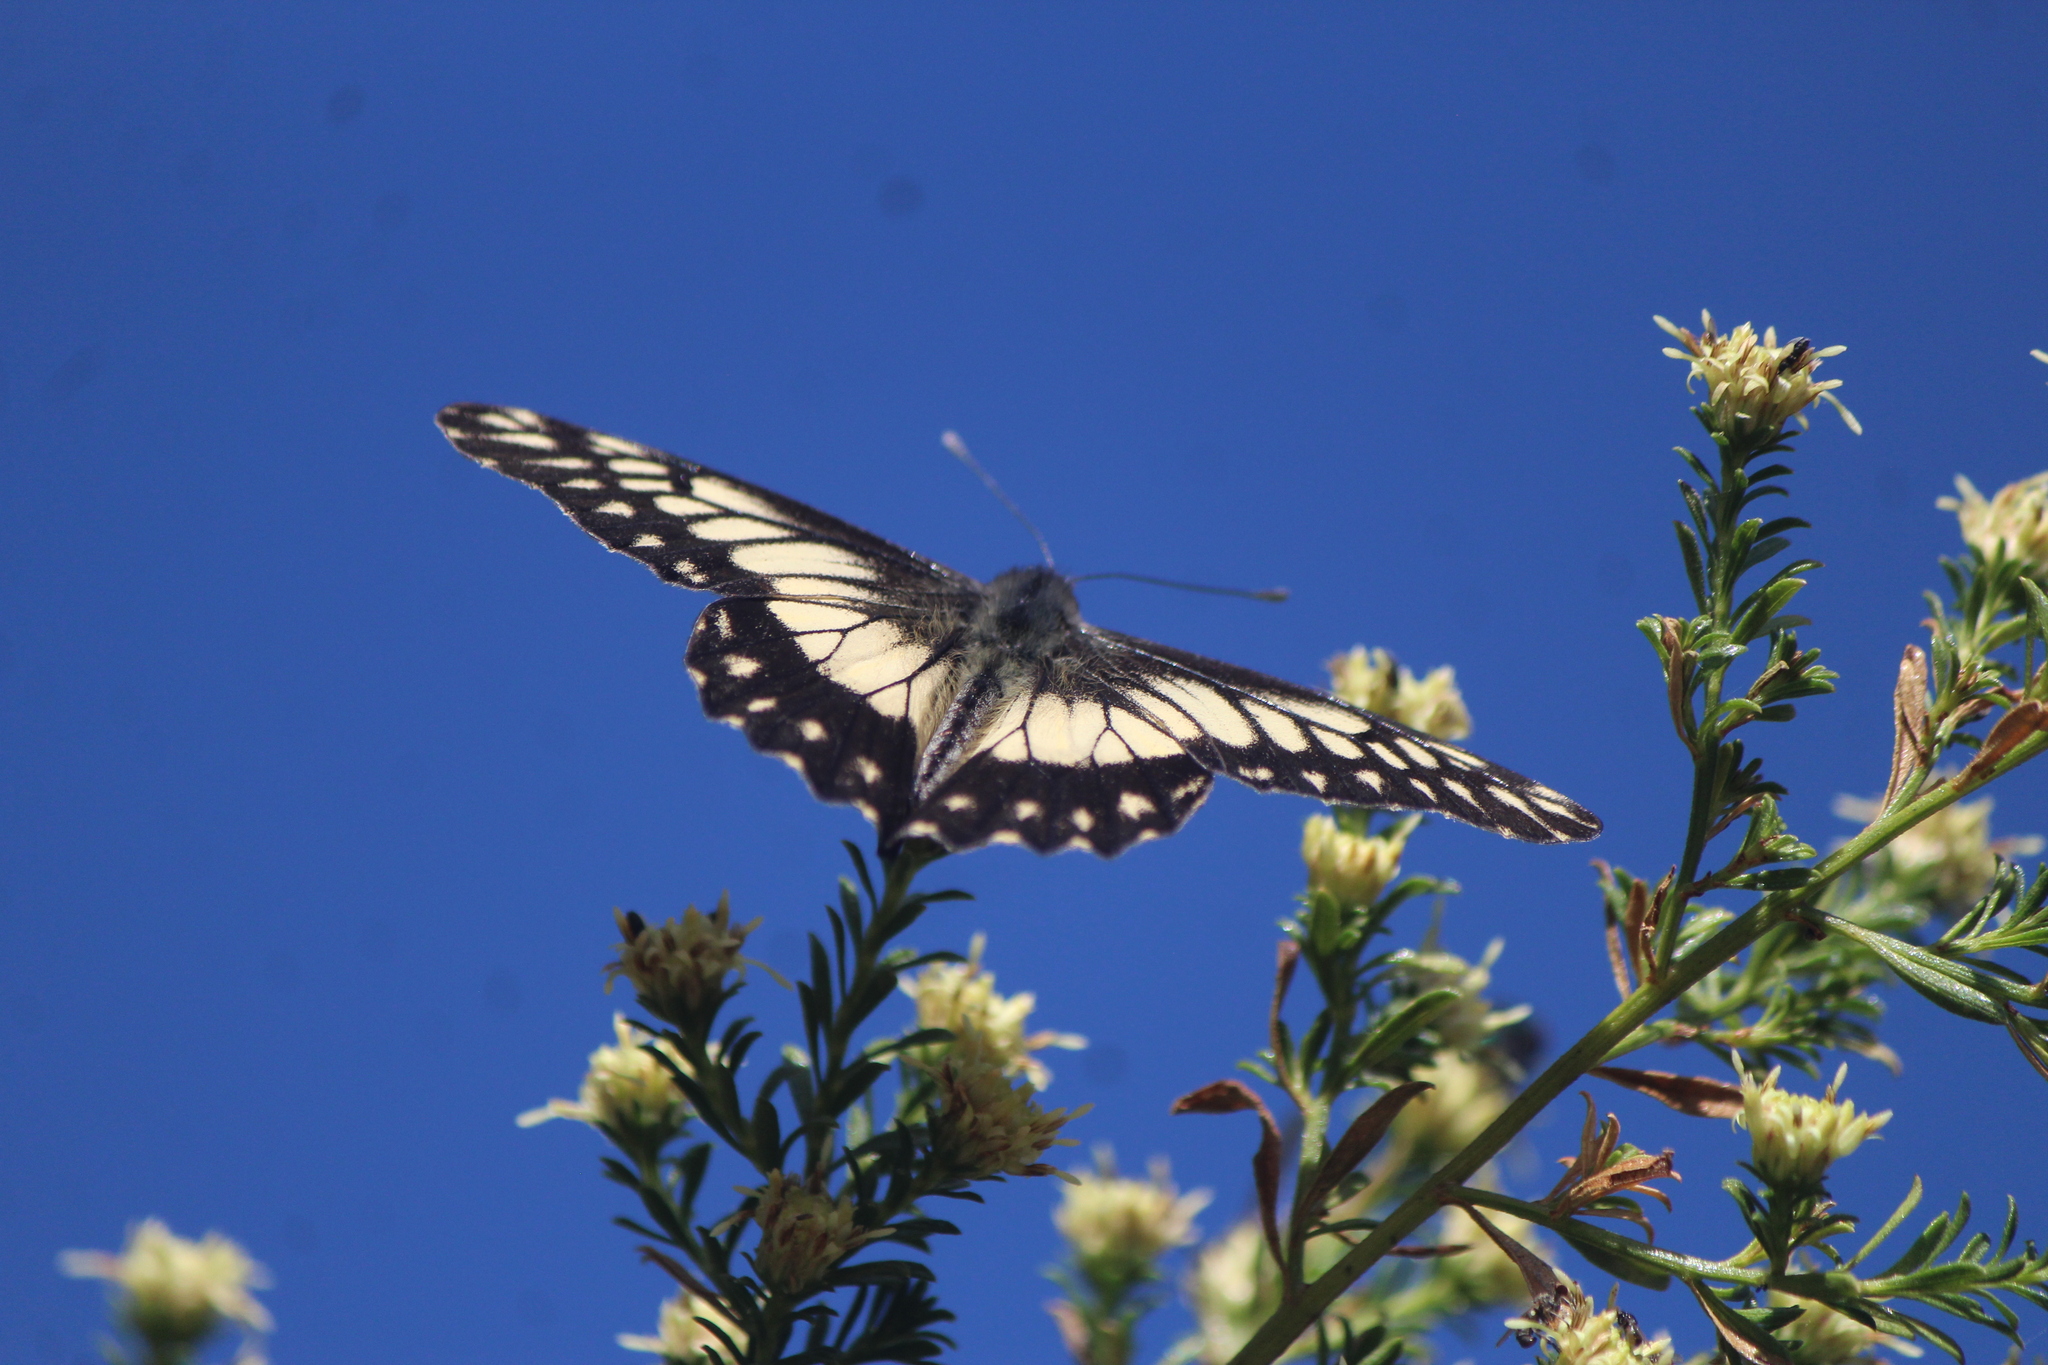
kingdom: Animalia
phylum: Arthropoda
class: Insecta
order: Lepidoptera
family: Pieridae
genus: Archonias
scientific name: Archonias nimbice
